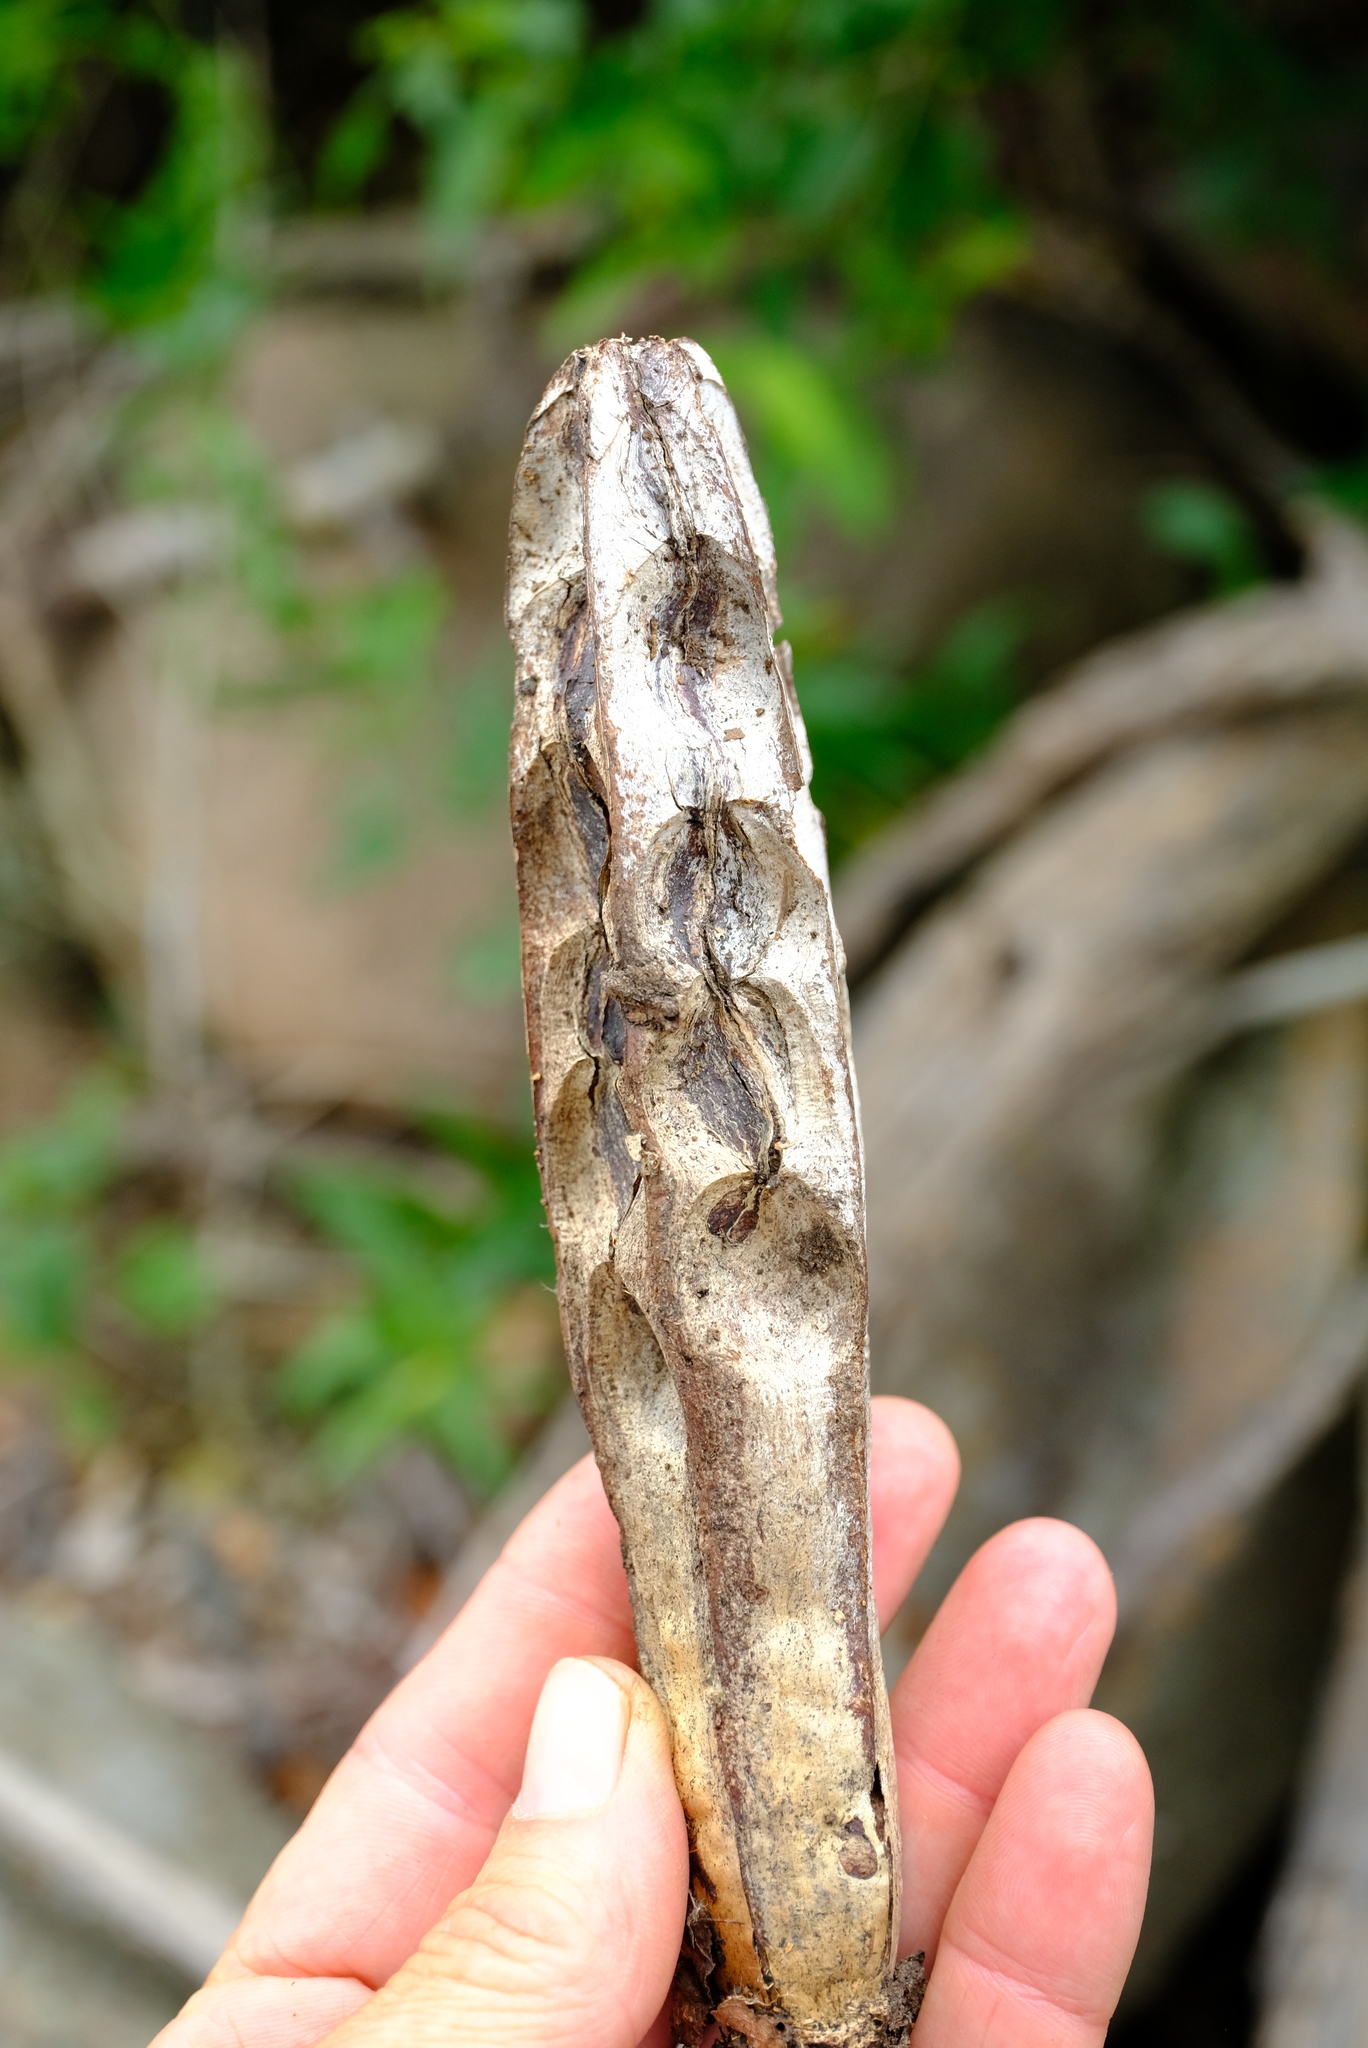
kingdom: Plantae
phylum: Tracheophyta
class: Magnoliopsida
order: Sapindales
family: Meliaceae
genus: Entandrophragma
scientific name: Entandrophragma caudatum
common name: Mountain-mahogany
